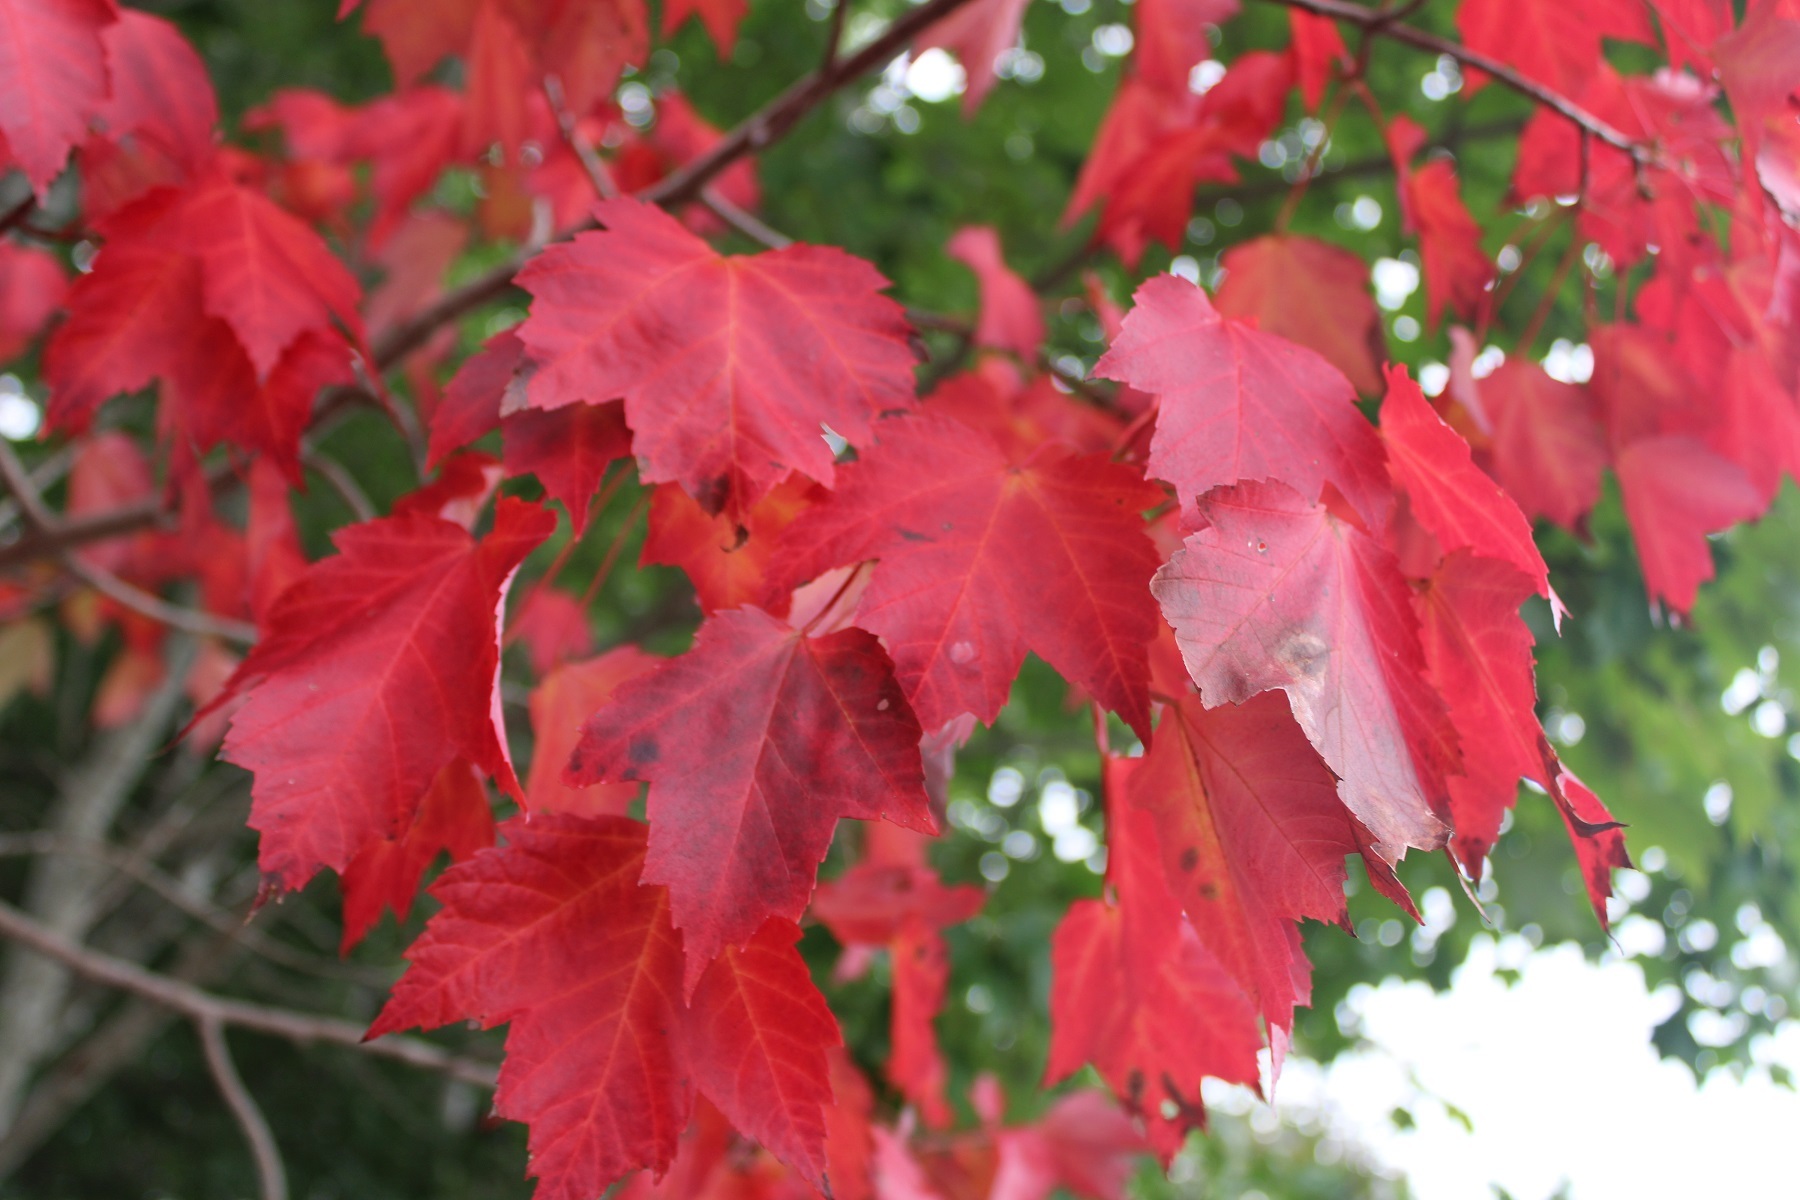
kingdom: Plantae
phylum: Tracheophyta
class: Magnoliopsida
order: Sapindales
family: Sapindaceae
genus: Acer
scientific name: Acer rubrum
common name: Red maple
